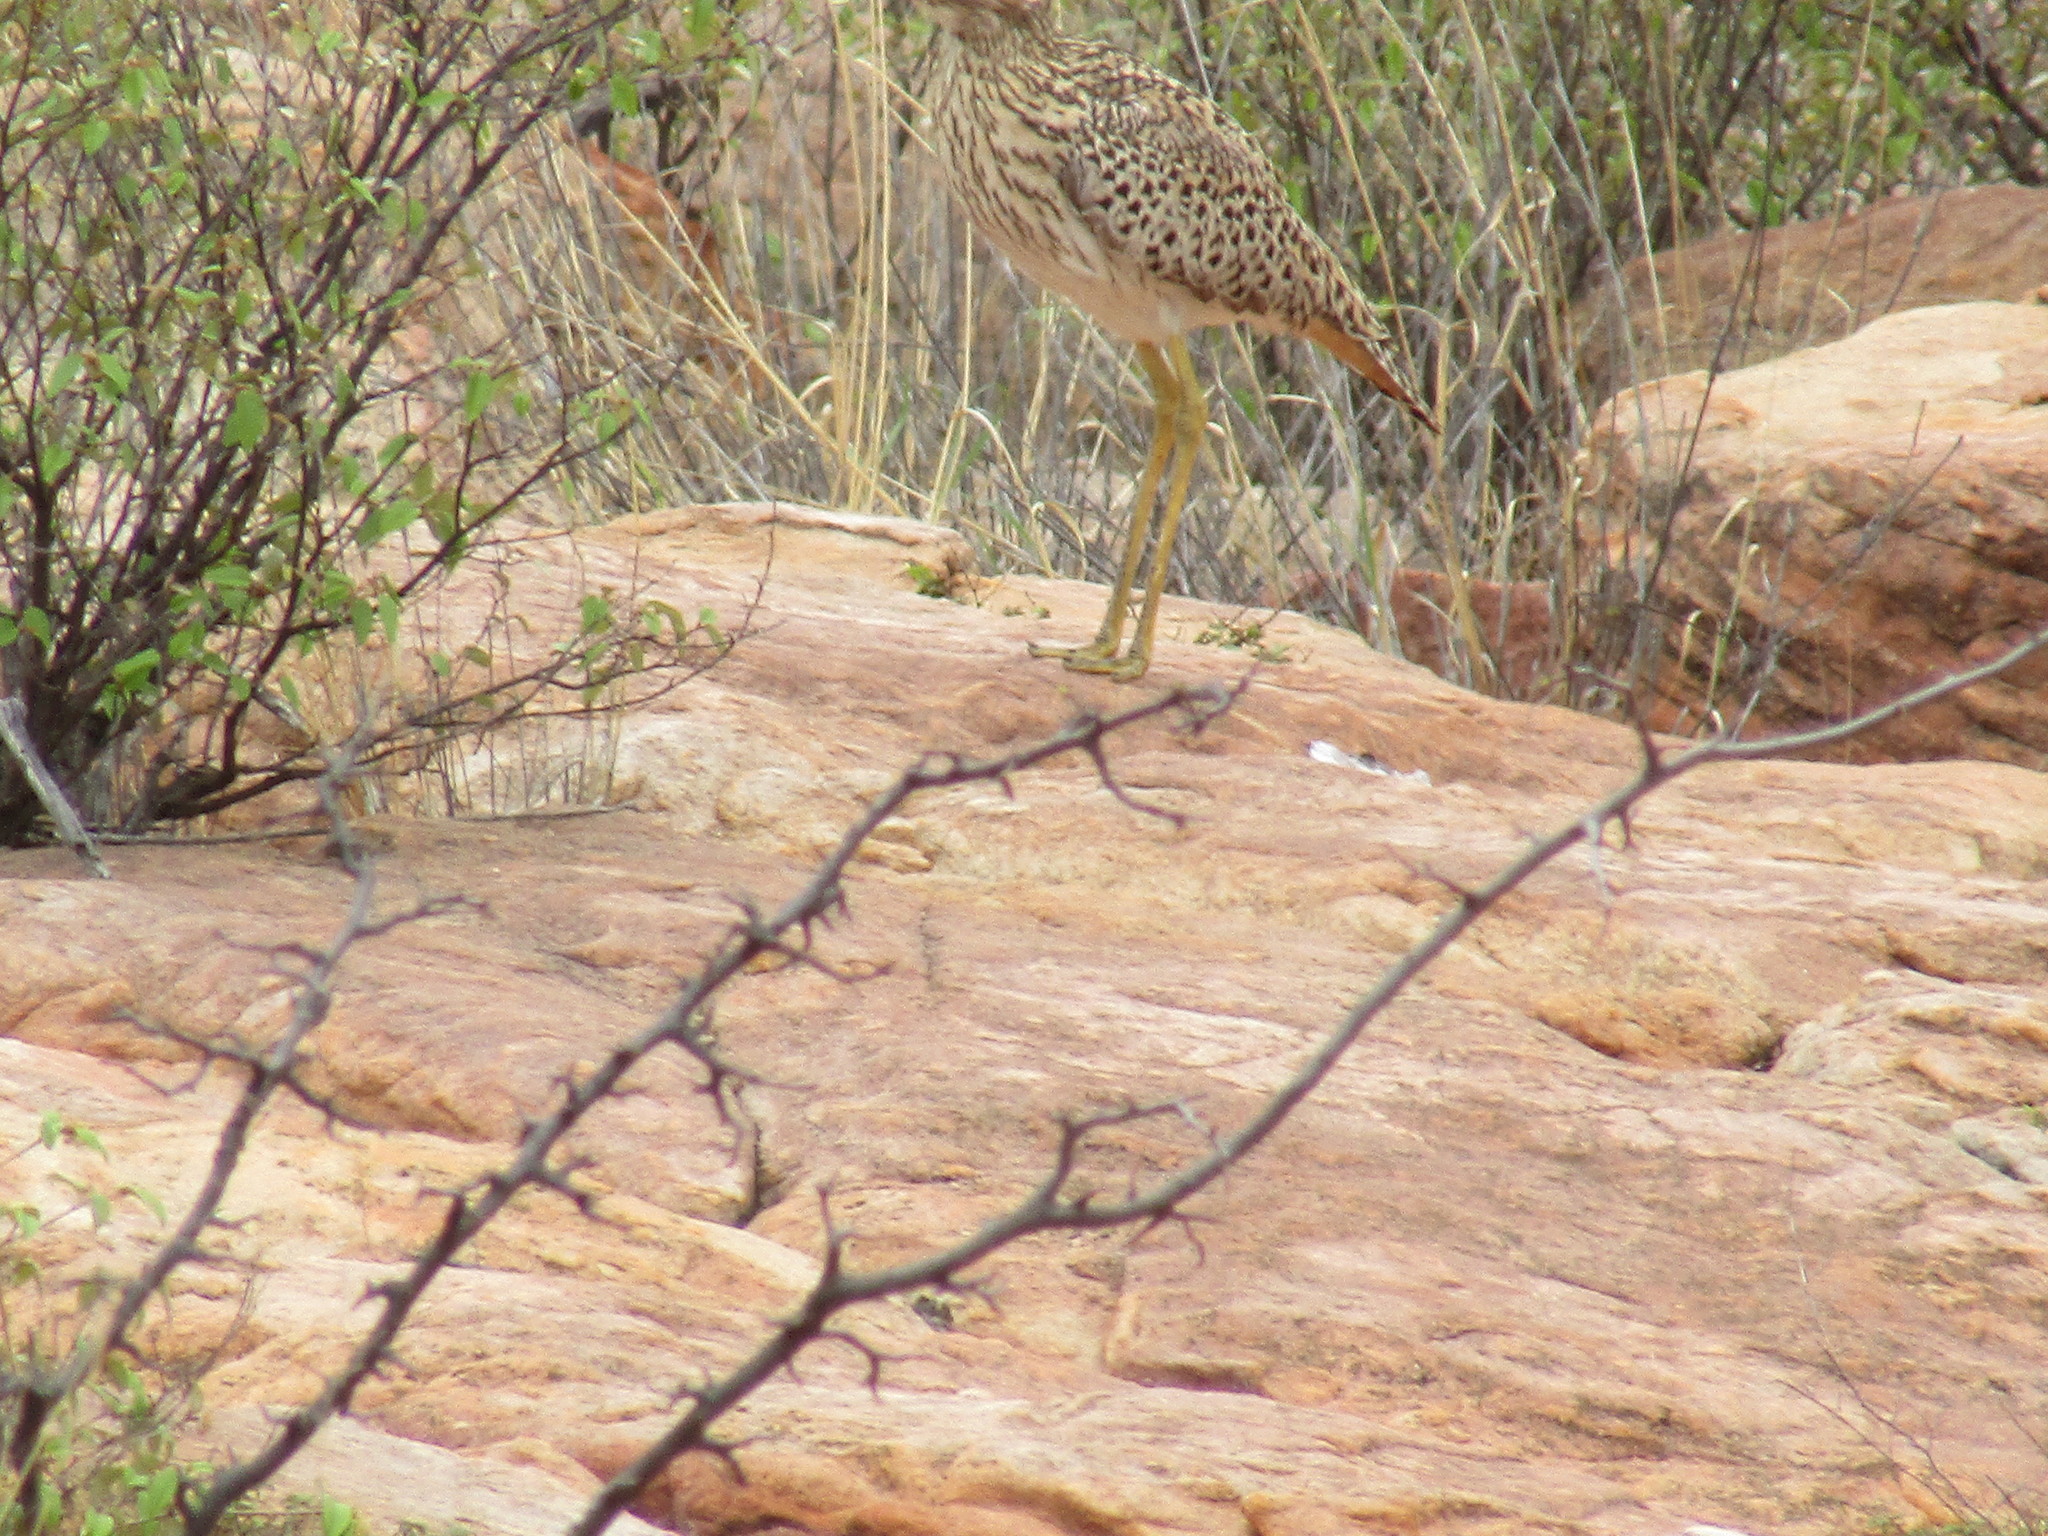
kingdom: Animalia
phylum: Chordata
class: Aves
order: Charadriiformes
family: Burhinidae
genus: Burhinus
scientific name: Burhinus capensis
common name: Spotted thick-knee
